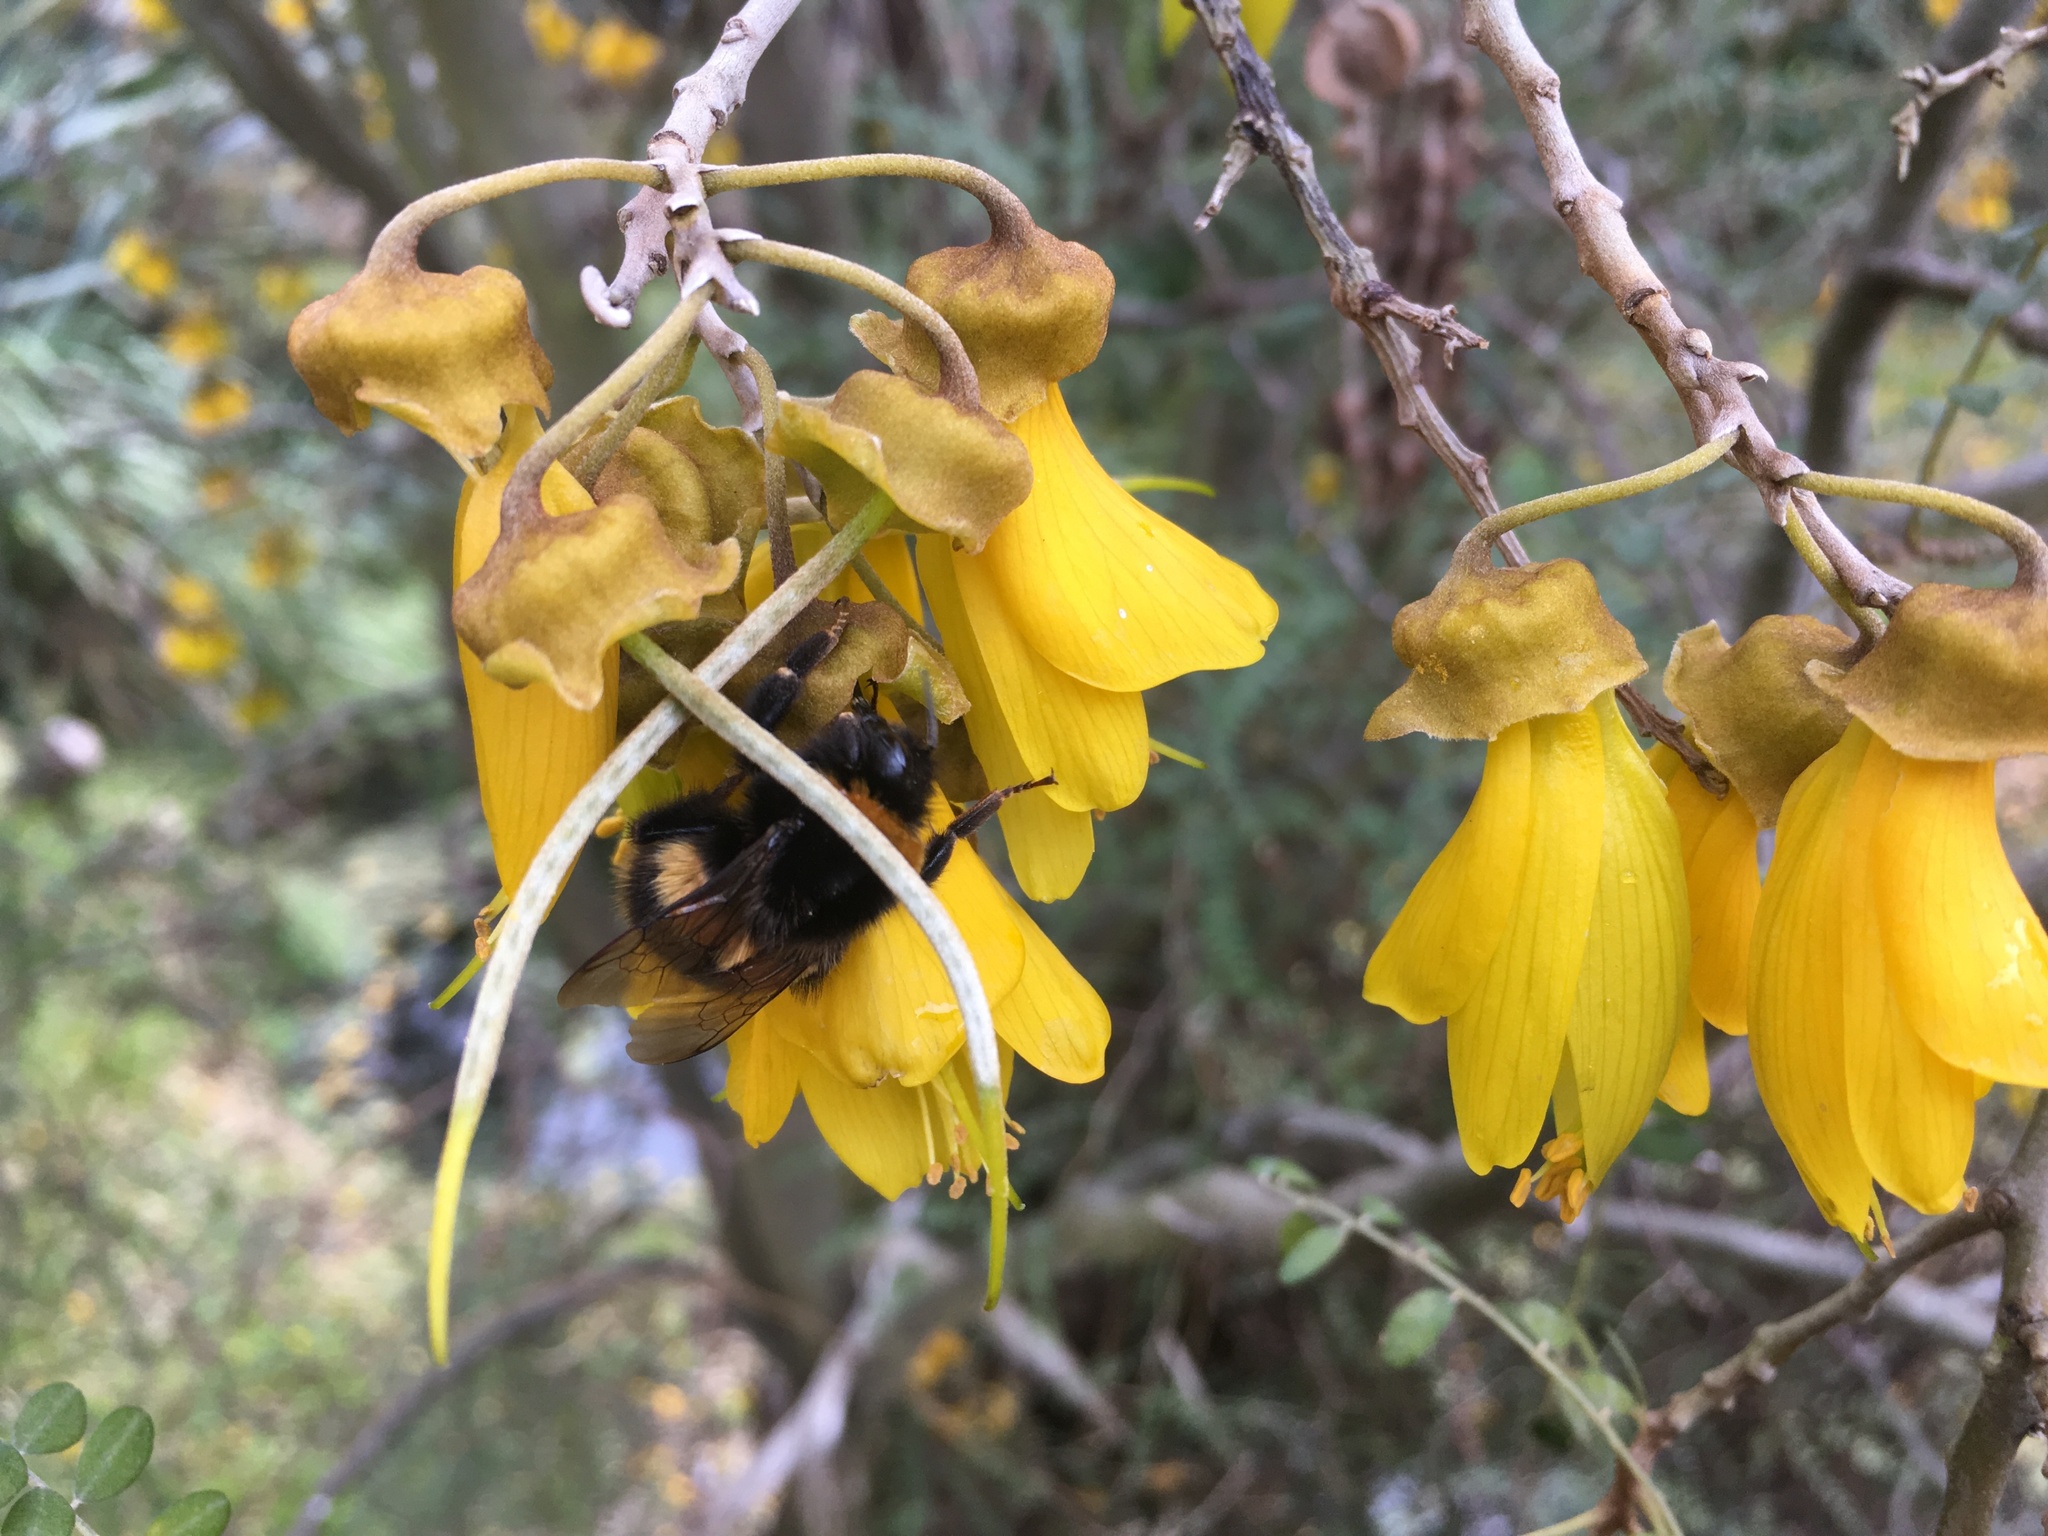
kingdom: Animalia
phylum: Arthropoda
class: Insecta
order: Hymenoptera
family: Apidae
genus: Bombus
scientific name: Bombus terrestris
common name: Buff-tailed bumblebee
